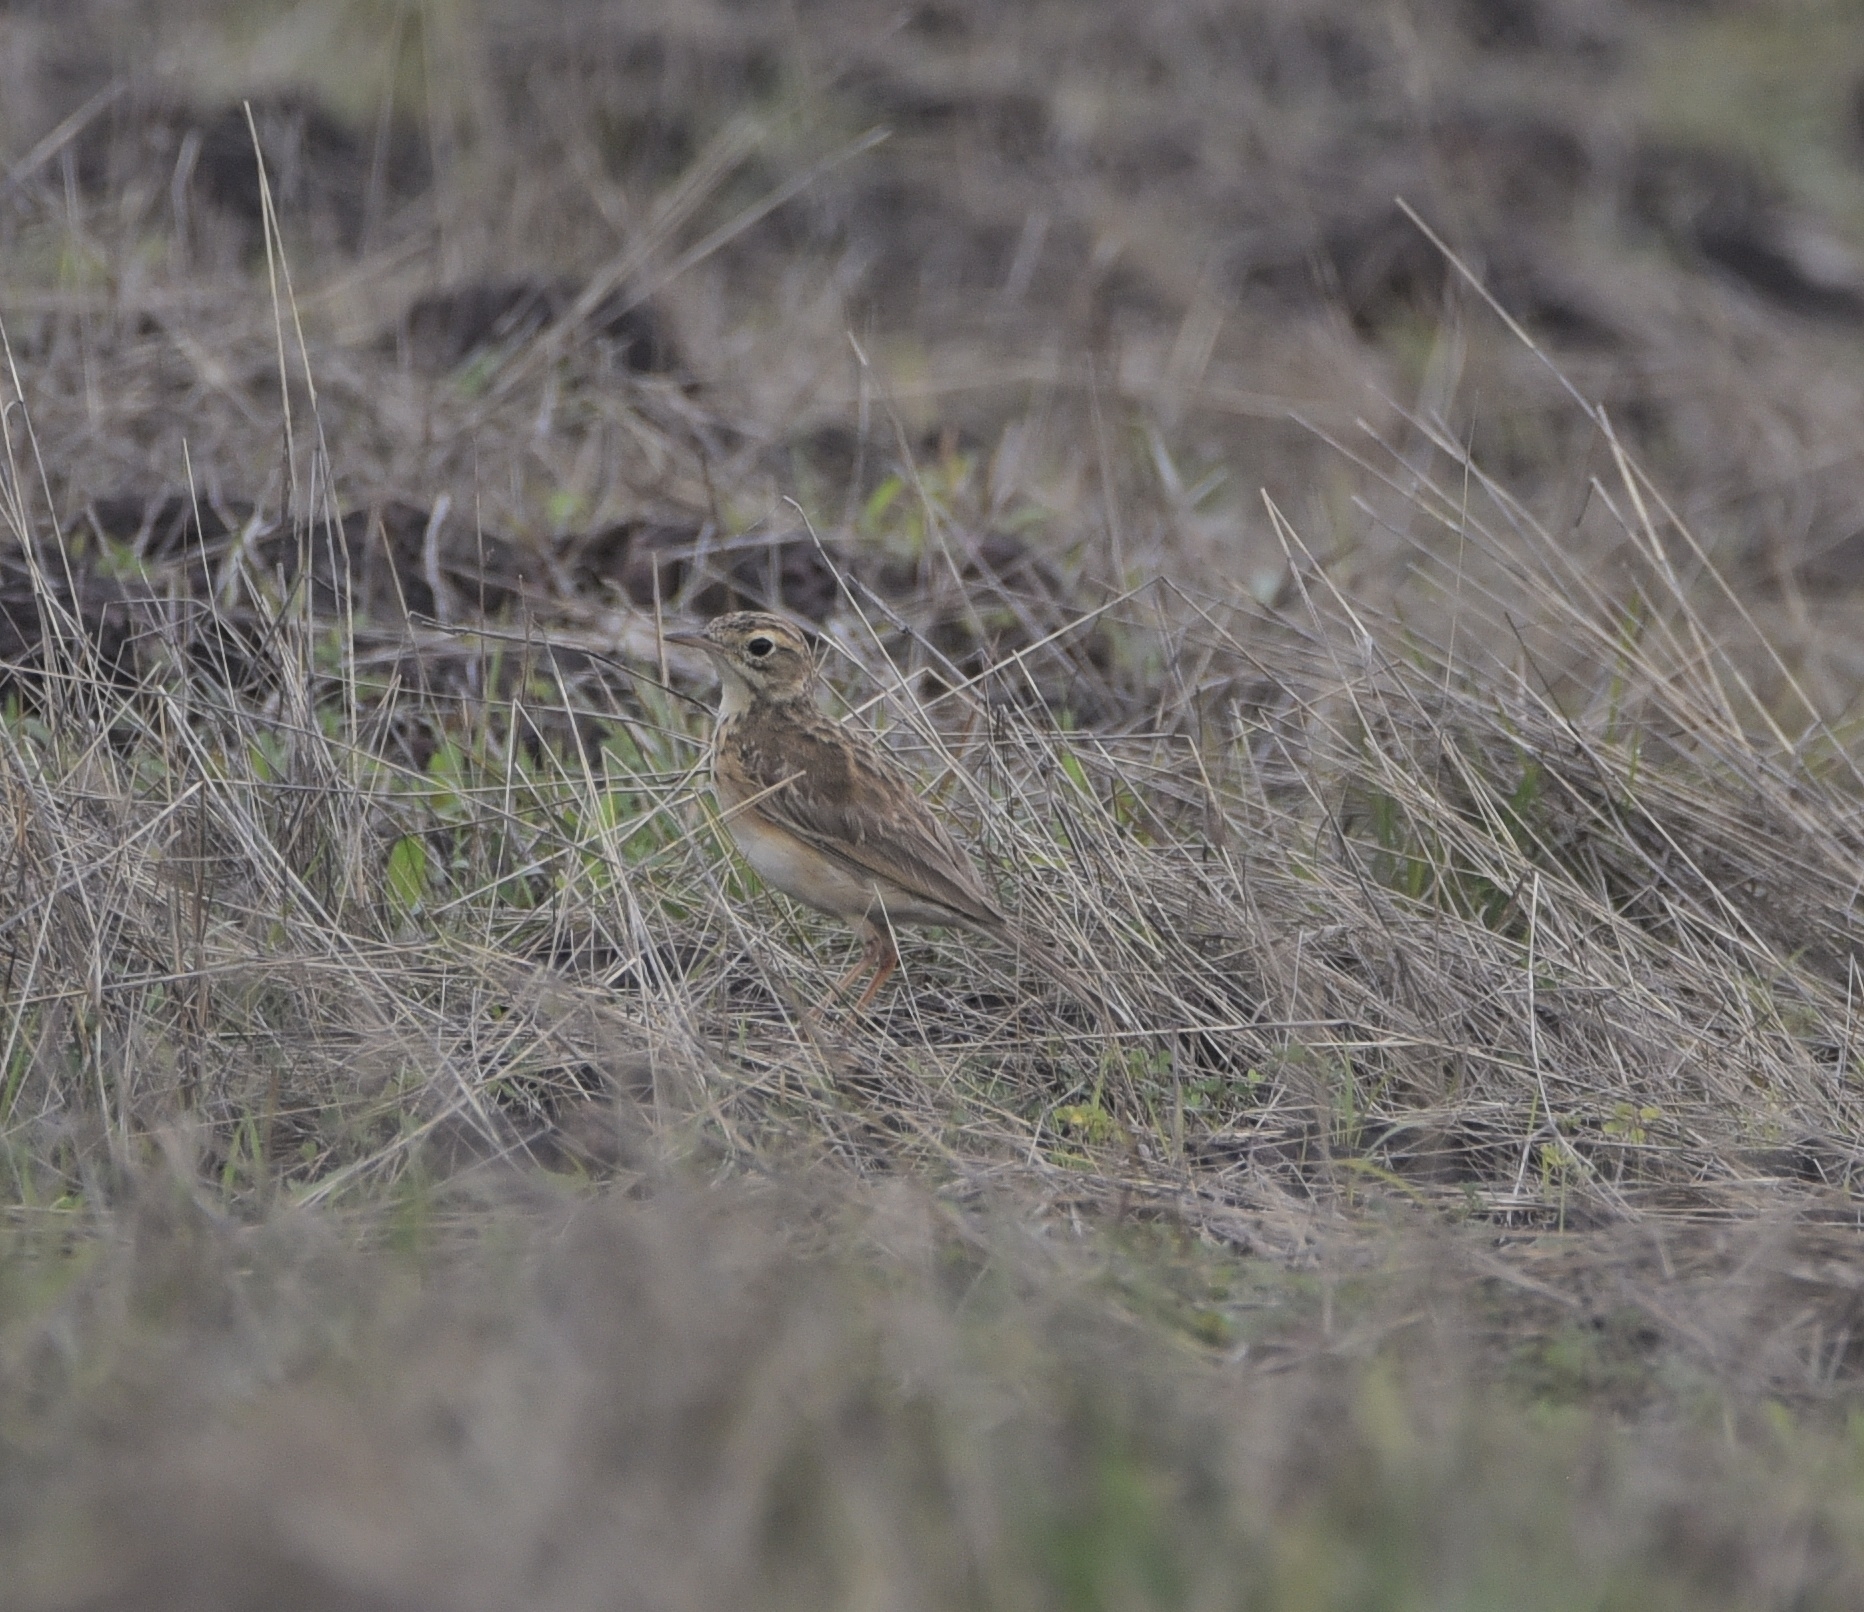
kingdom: Animalia
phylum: Chordata
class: Aves
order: Passeriformes
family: Motacillidae
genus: Anthus
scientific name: Anthus rufulus
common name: Paddyfield pipit
